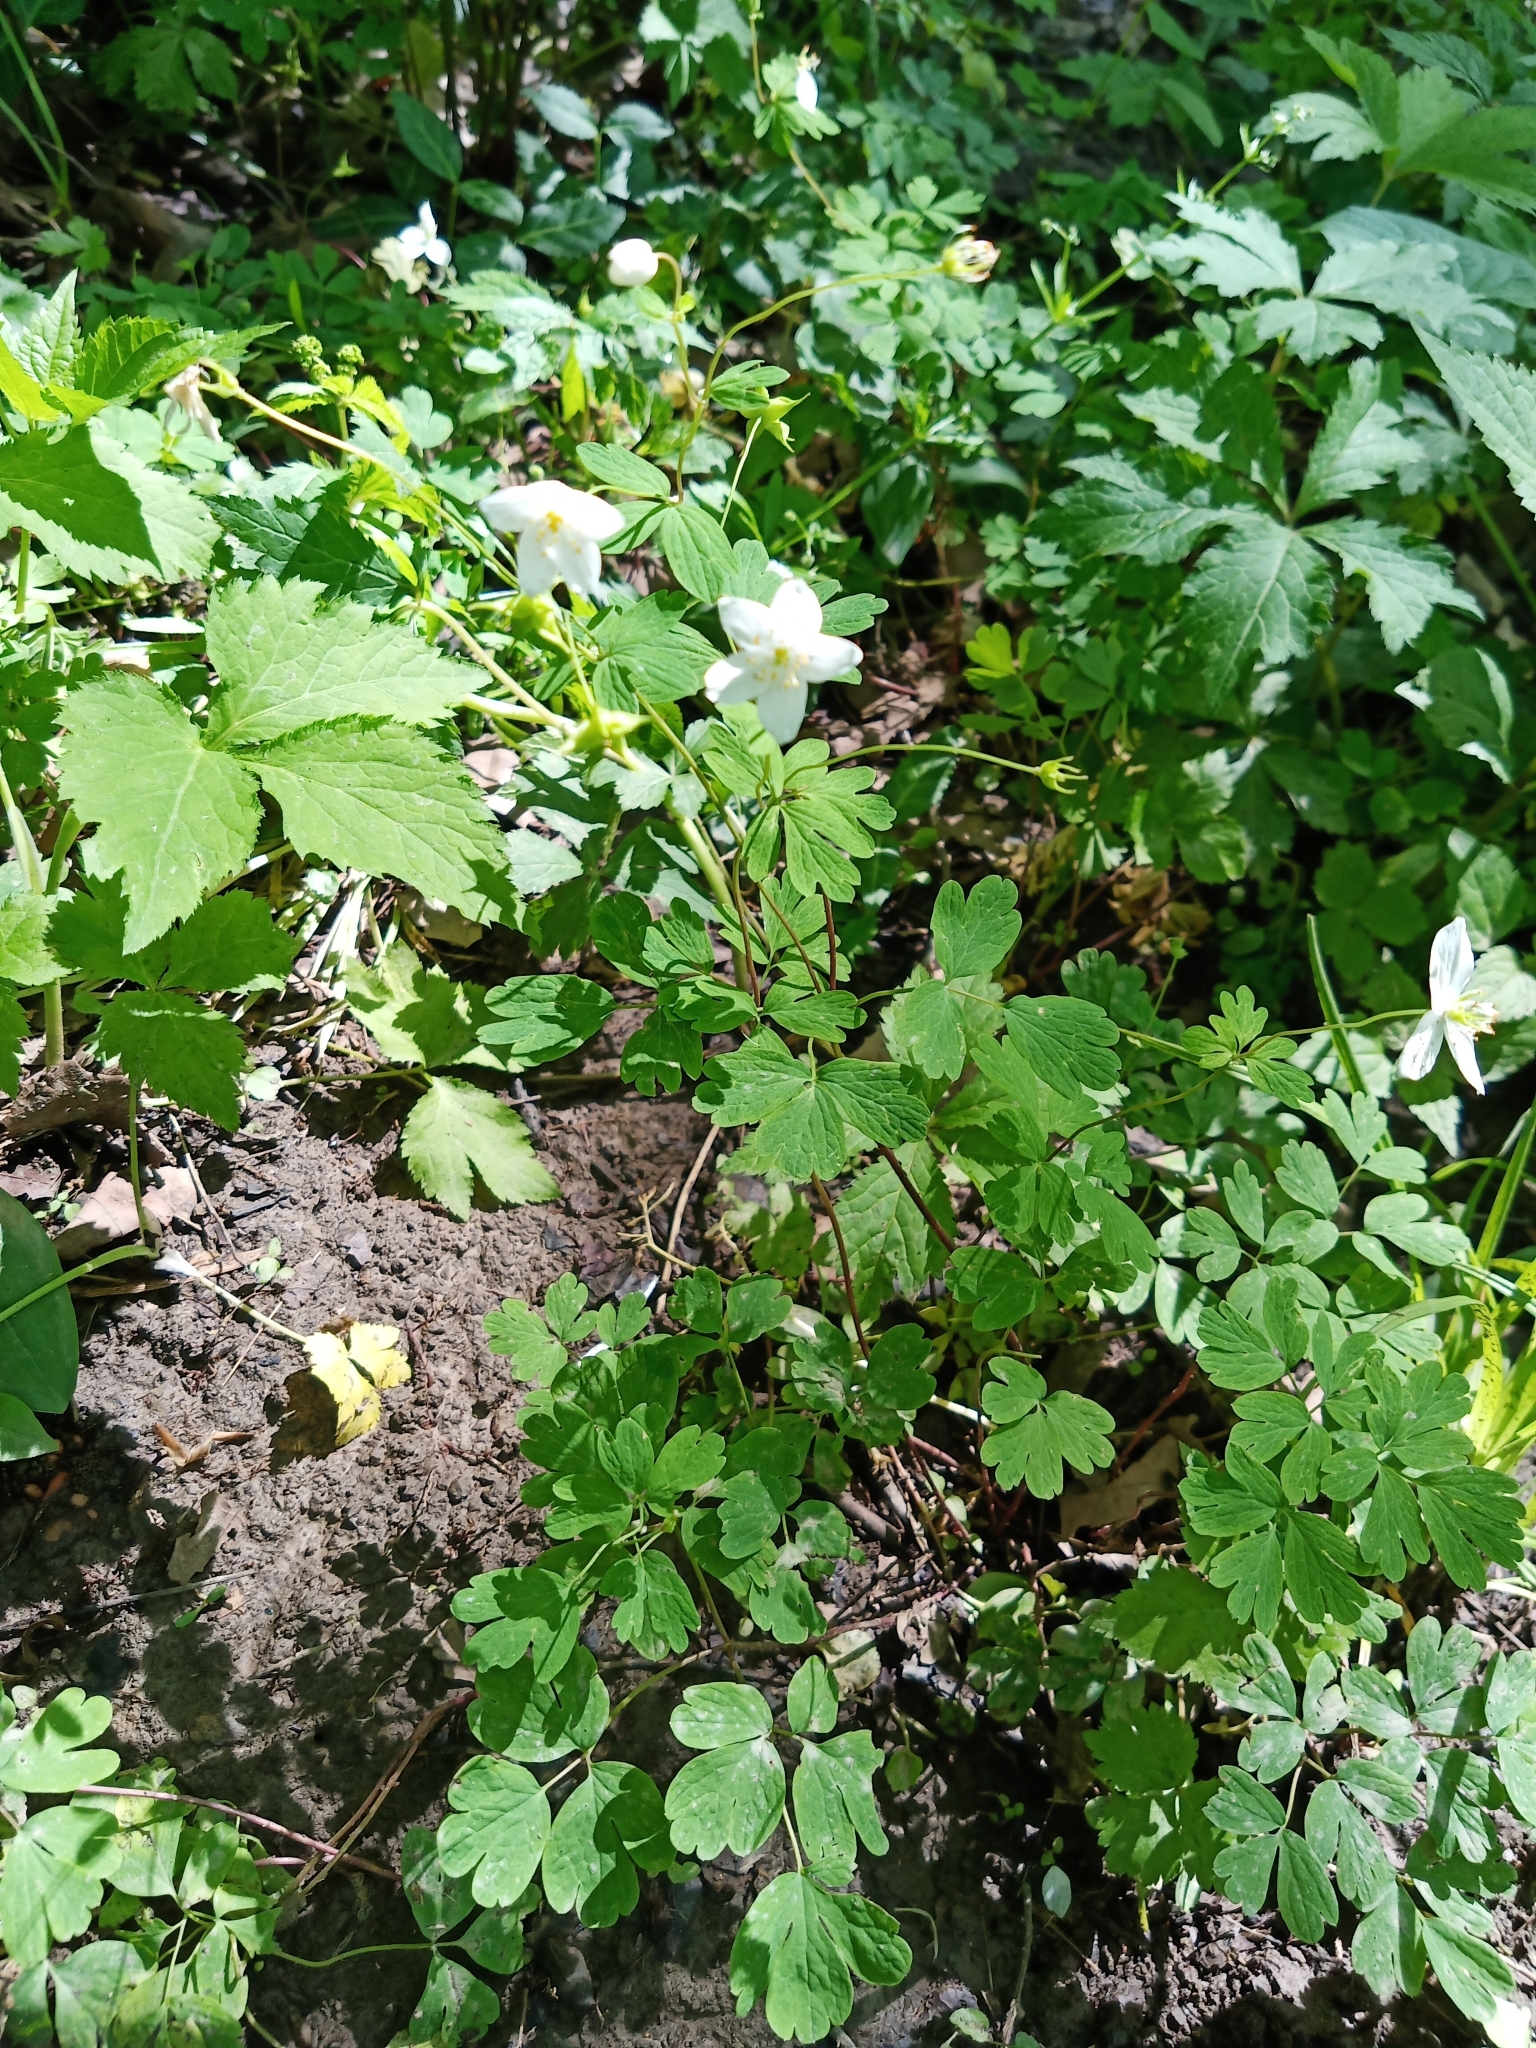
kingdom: Plantae
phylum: Tracheophyta
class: Magnoliopsida
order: Ranunculales
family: Ranunculaceae
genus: Enemion
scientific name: Enemion biternatum
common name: Eastern false rue-anemone
